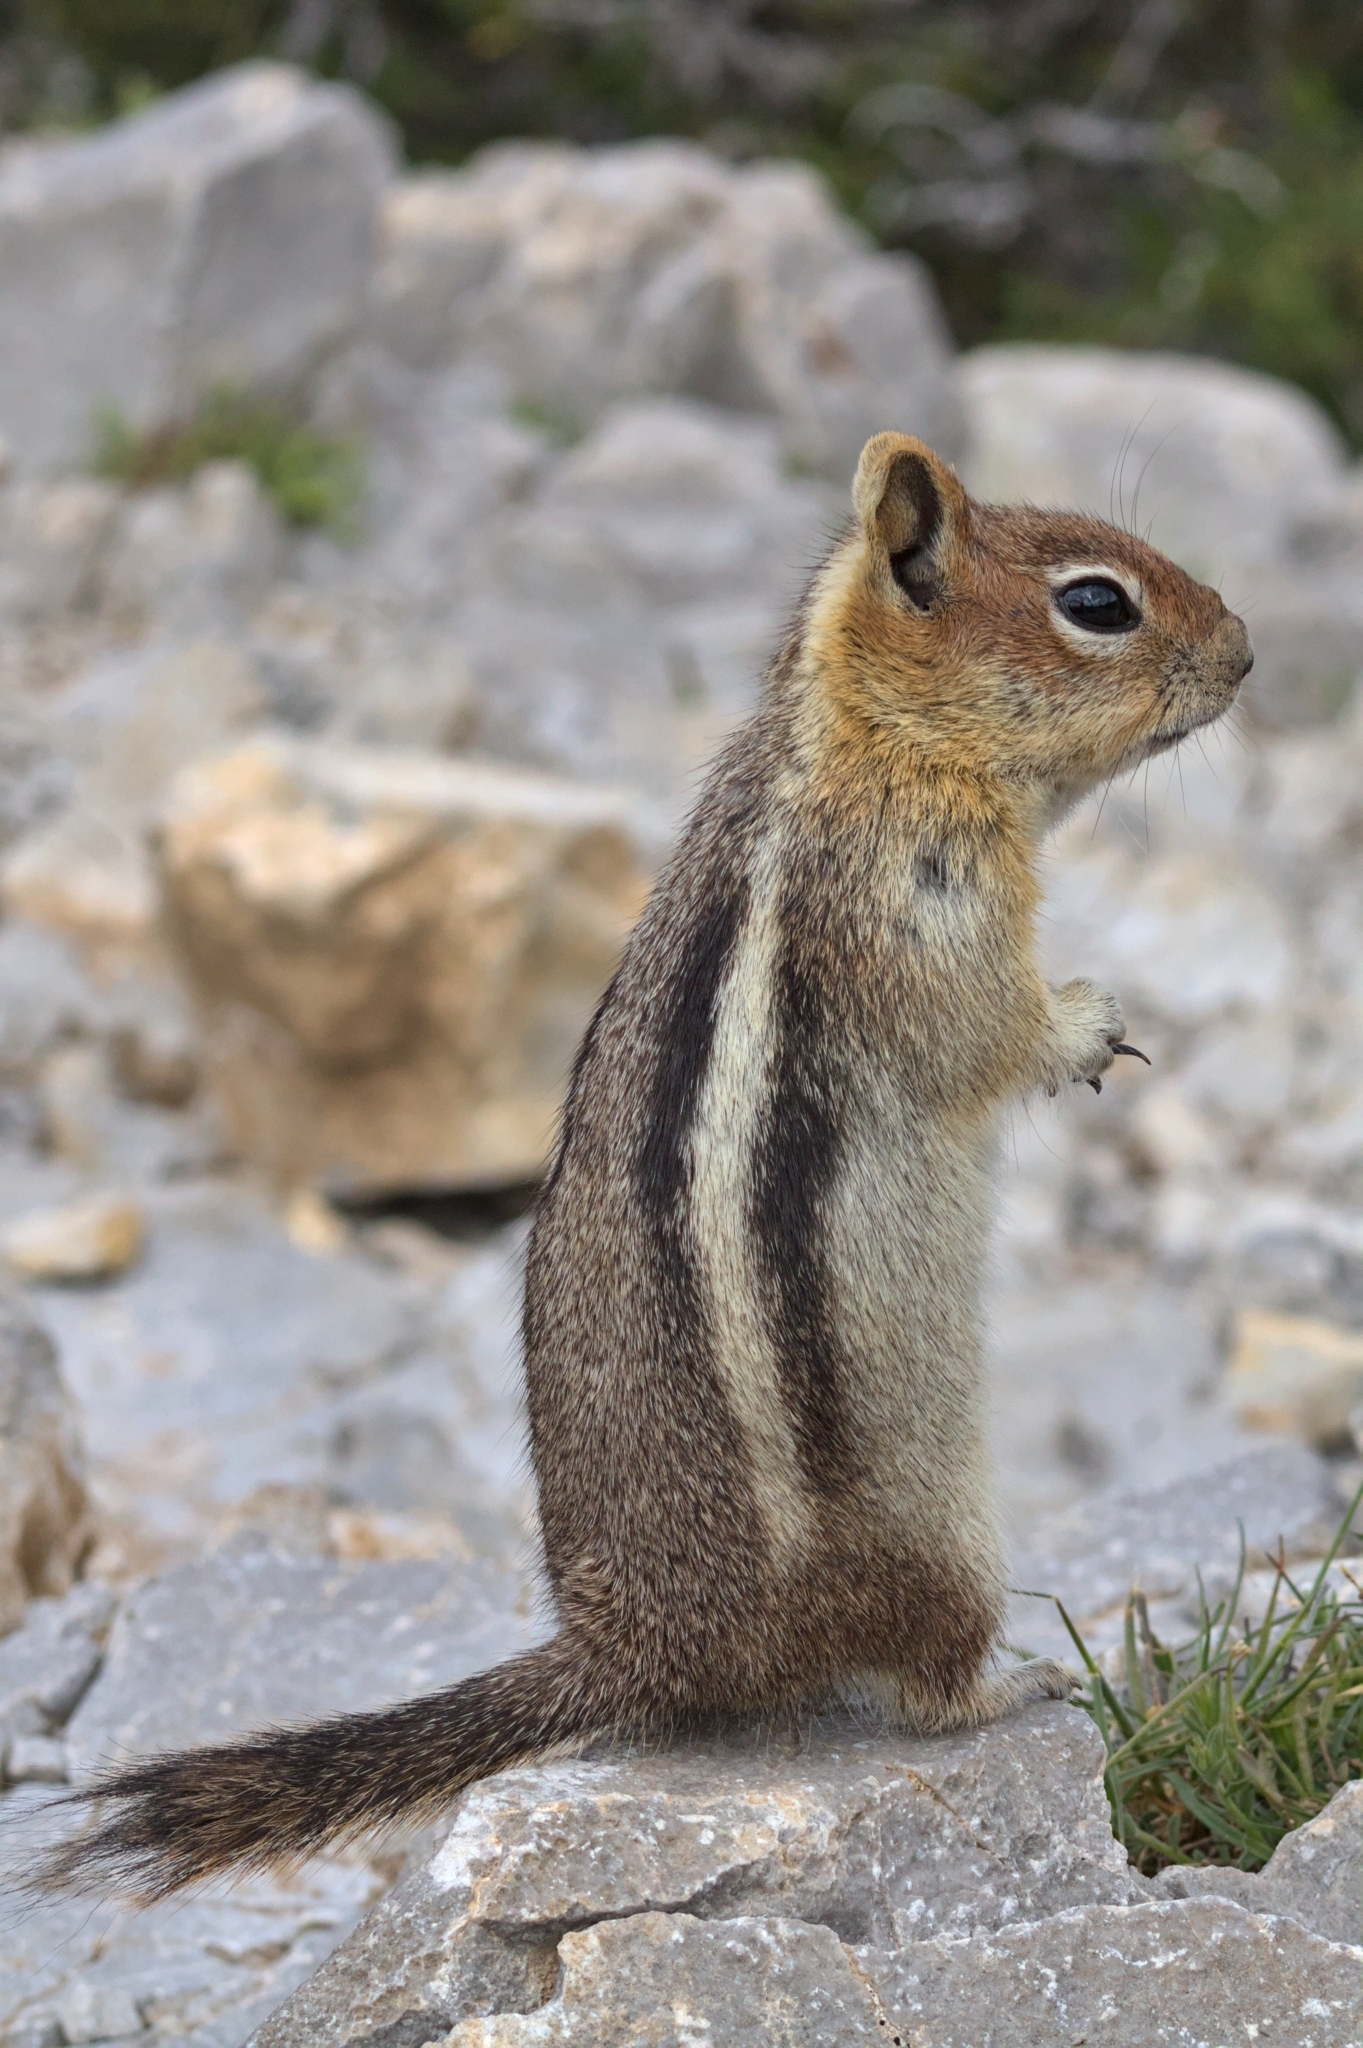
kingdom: Animalia
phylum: Chordata
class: Mammalia
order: Rodentia
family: Sciuridae
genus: Callospermophilus
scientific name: Callospermophilus lateralis
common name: Golden-mantled ground squirrel
